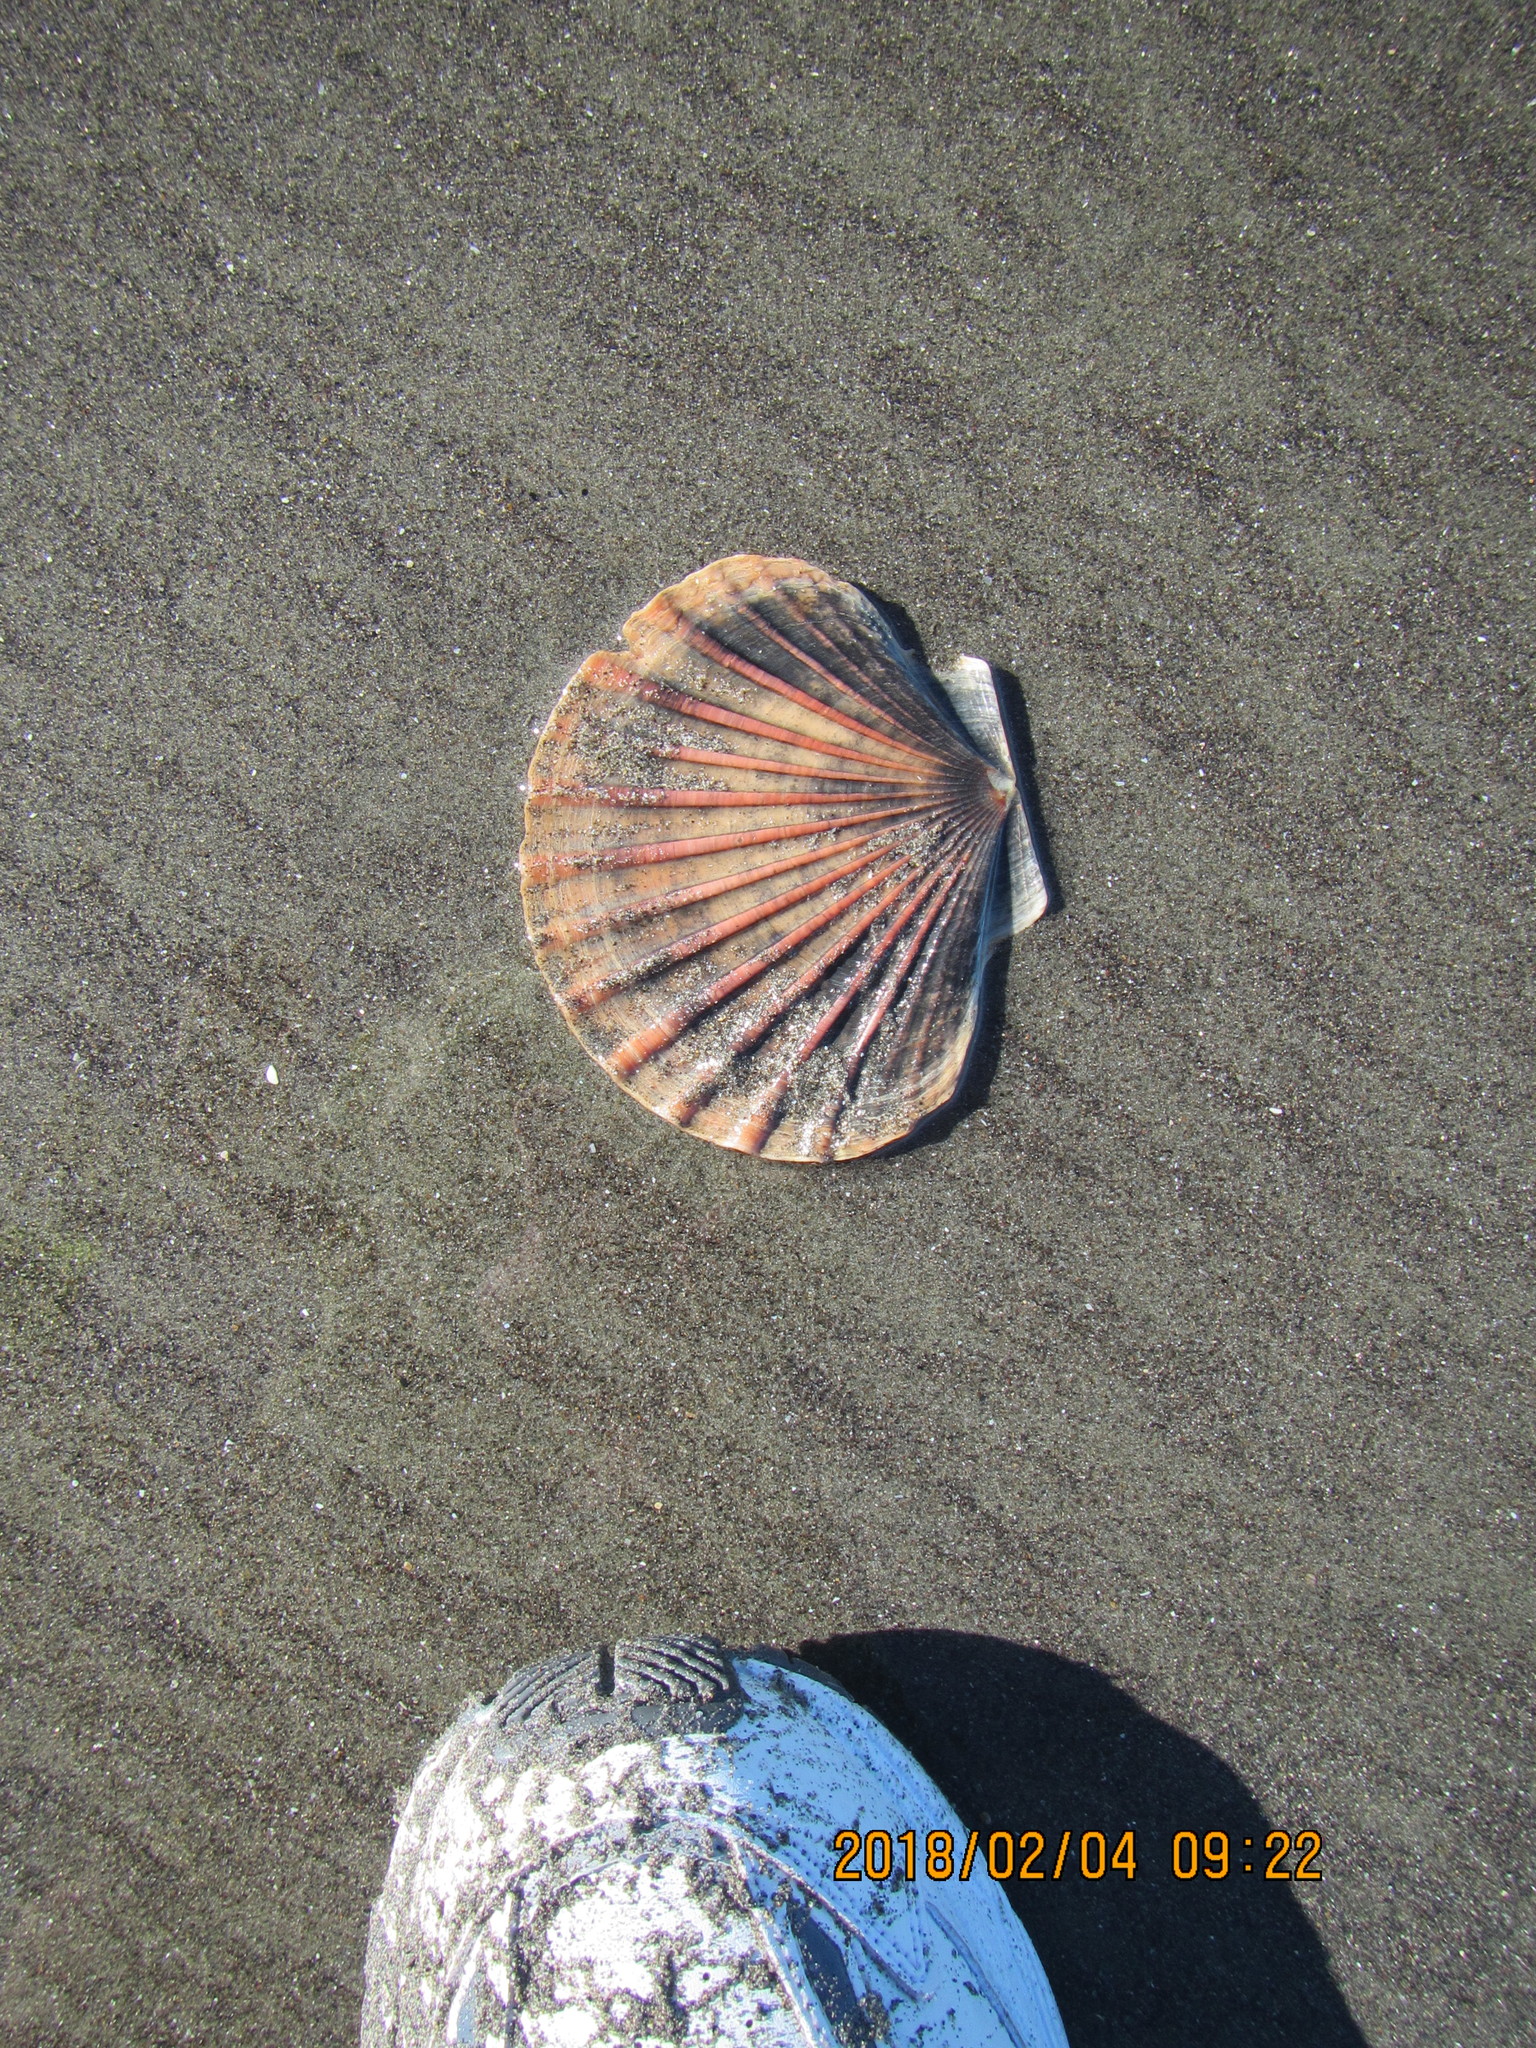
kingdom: Animalia
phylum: Mollusca
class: Bivalvia
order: Pectinida
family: Pectinidae
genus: Pecten
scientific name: Pecten novaezelandiae
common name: New zealand scallop
